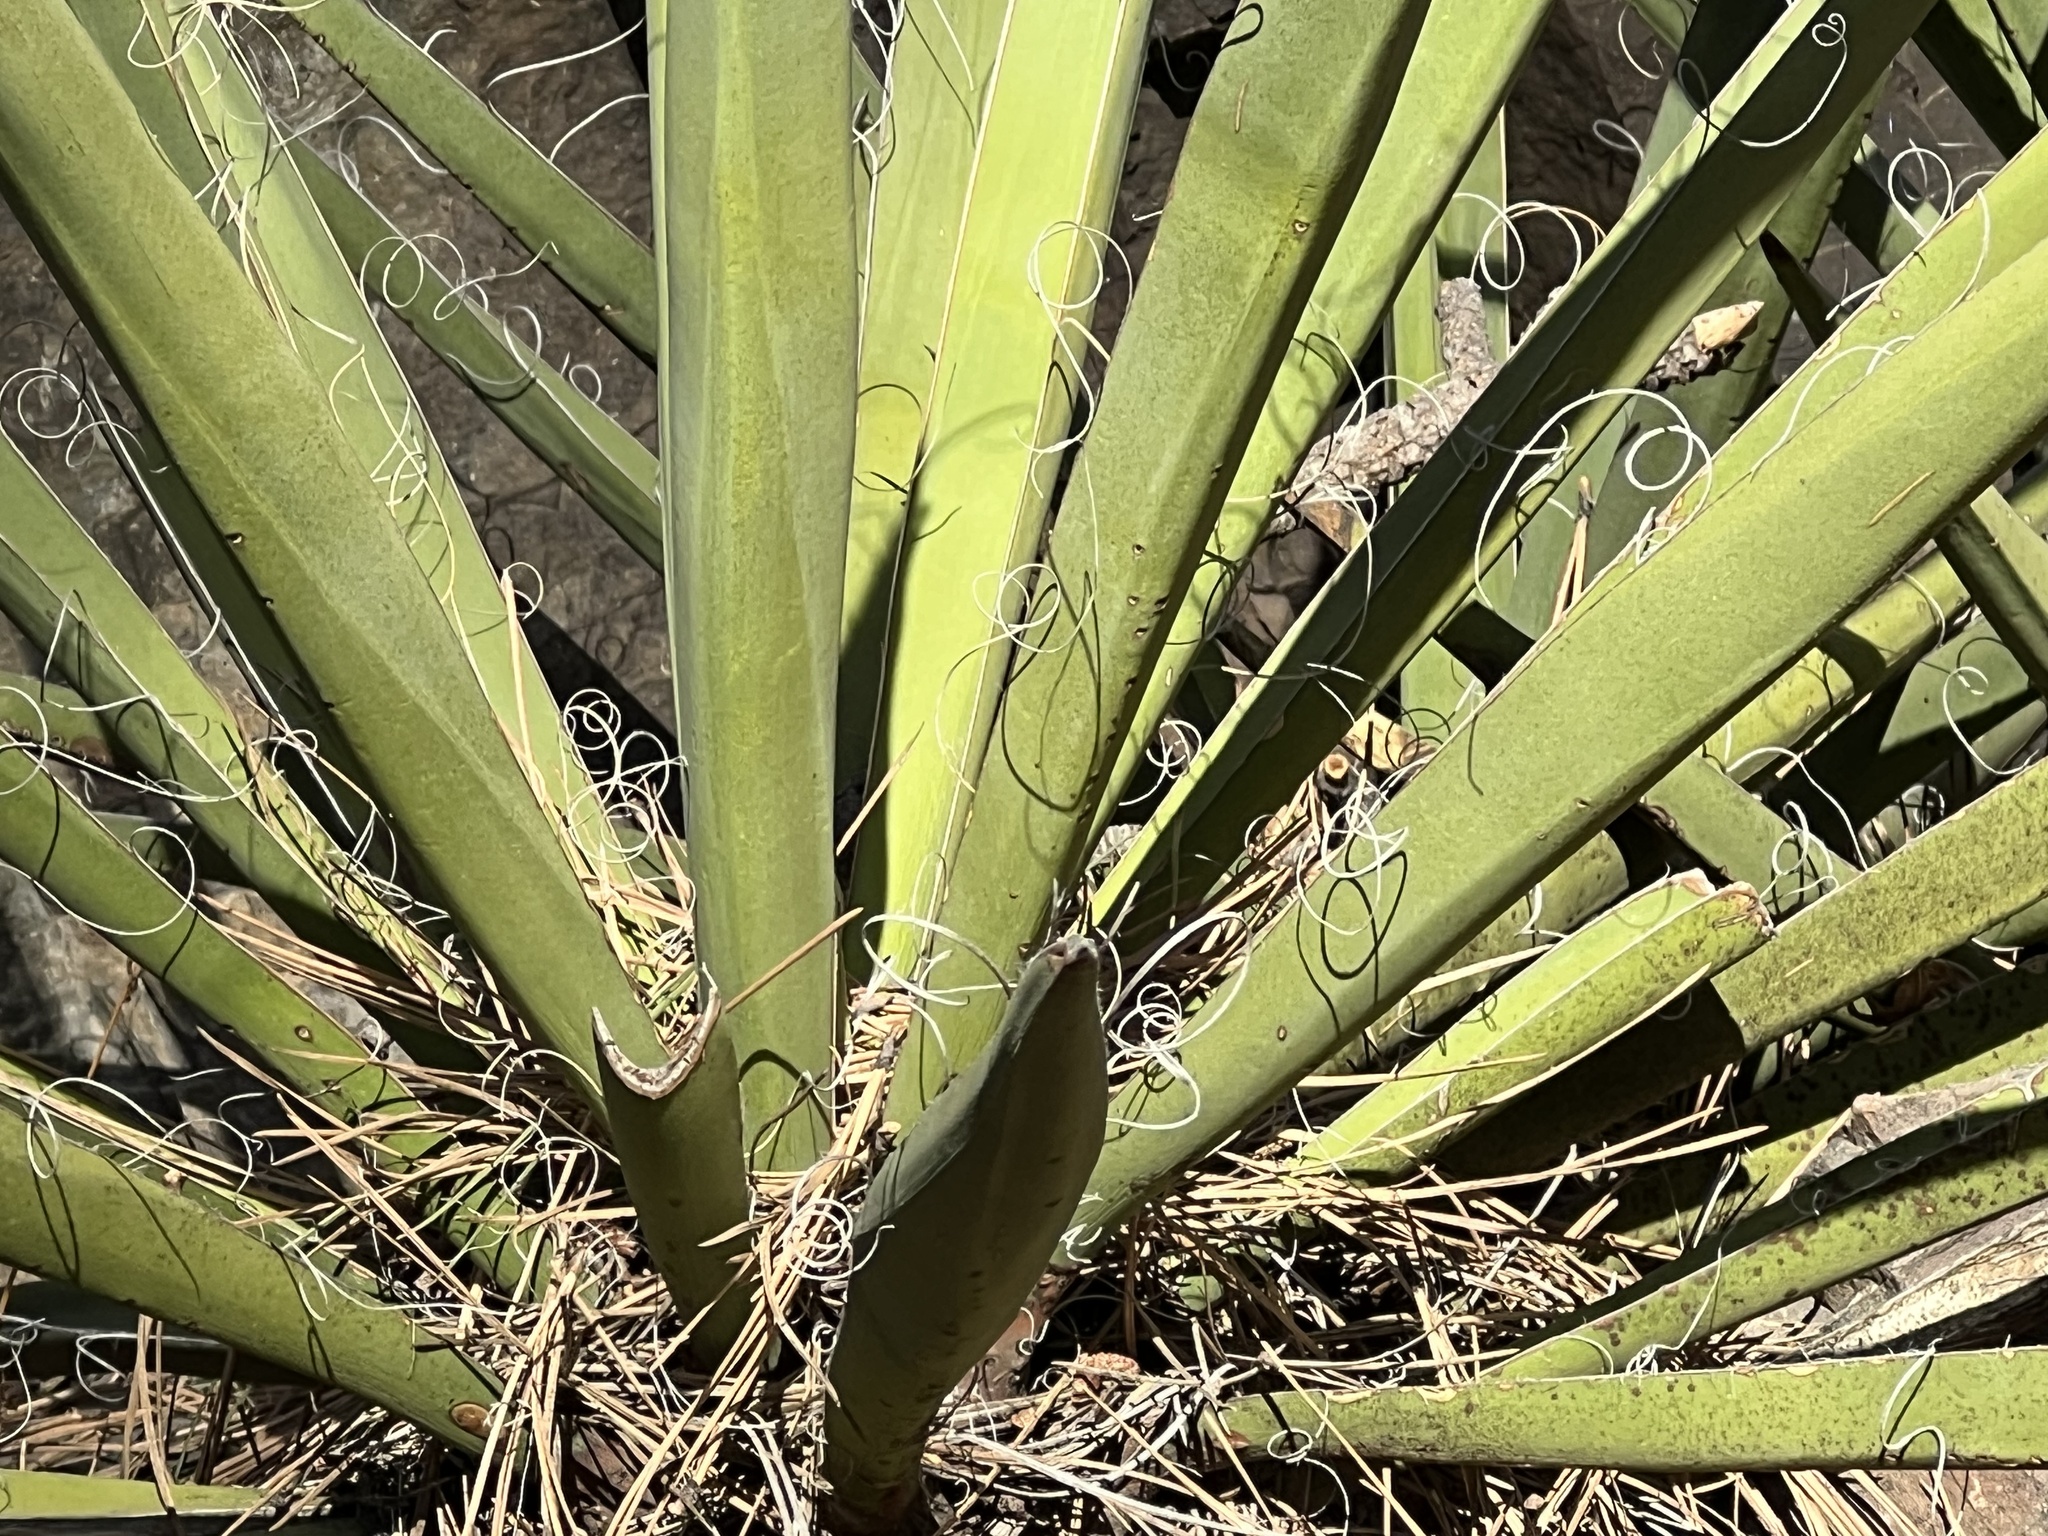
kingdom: Plantae
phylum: Tracheophyta
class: Liliopsida
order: Asparagales
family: Asparagaceae
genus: Yucca
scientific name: Yucca baccata
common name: Banana yucca
